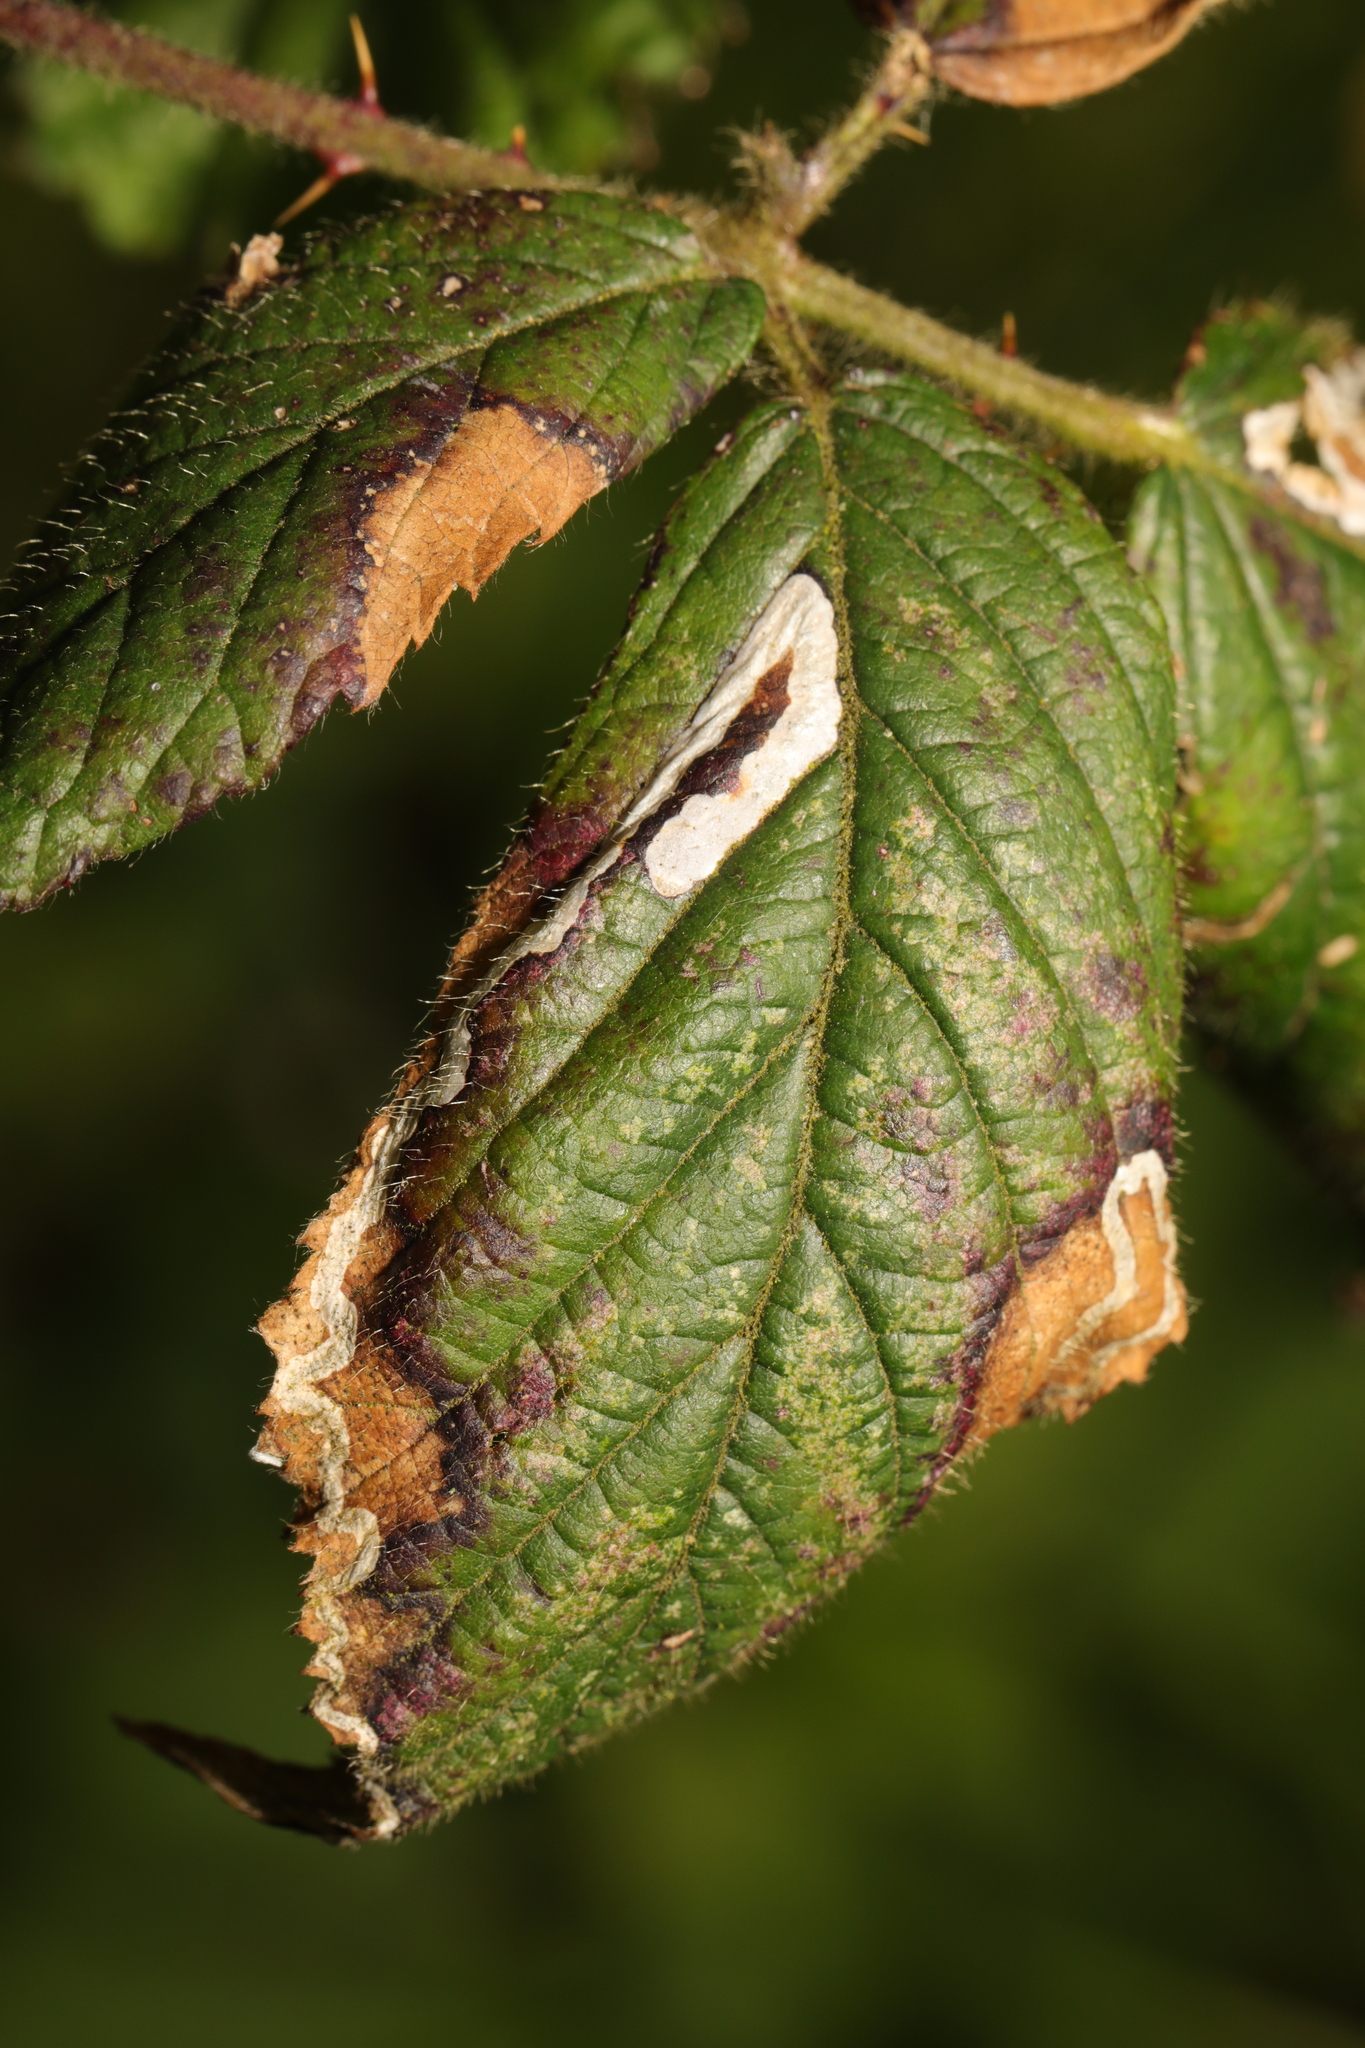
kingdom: Animalia
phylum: Arthropoda
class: Insecta
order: Lepidoptera
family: Nepticulidae
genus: Stigmella
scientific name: Stigmella aurella
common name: Golden pigmy
